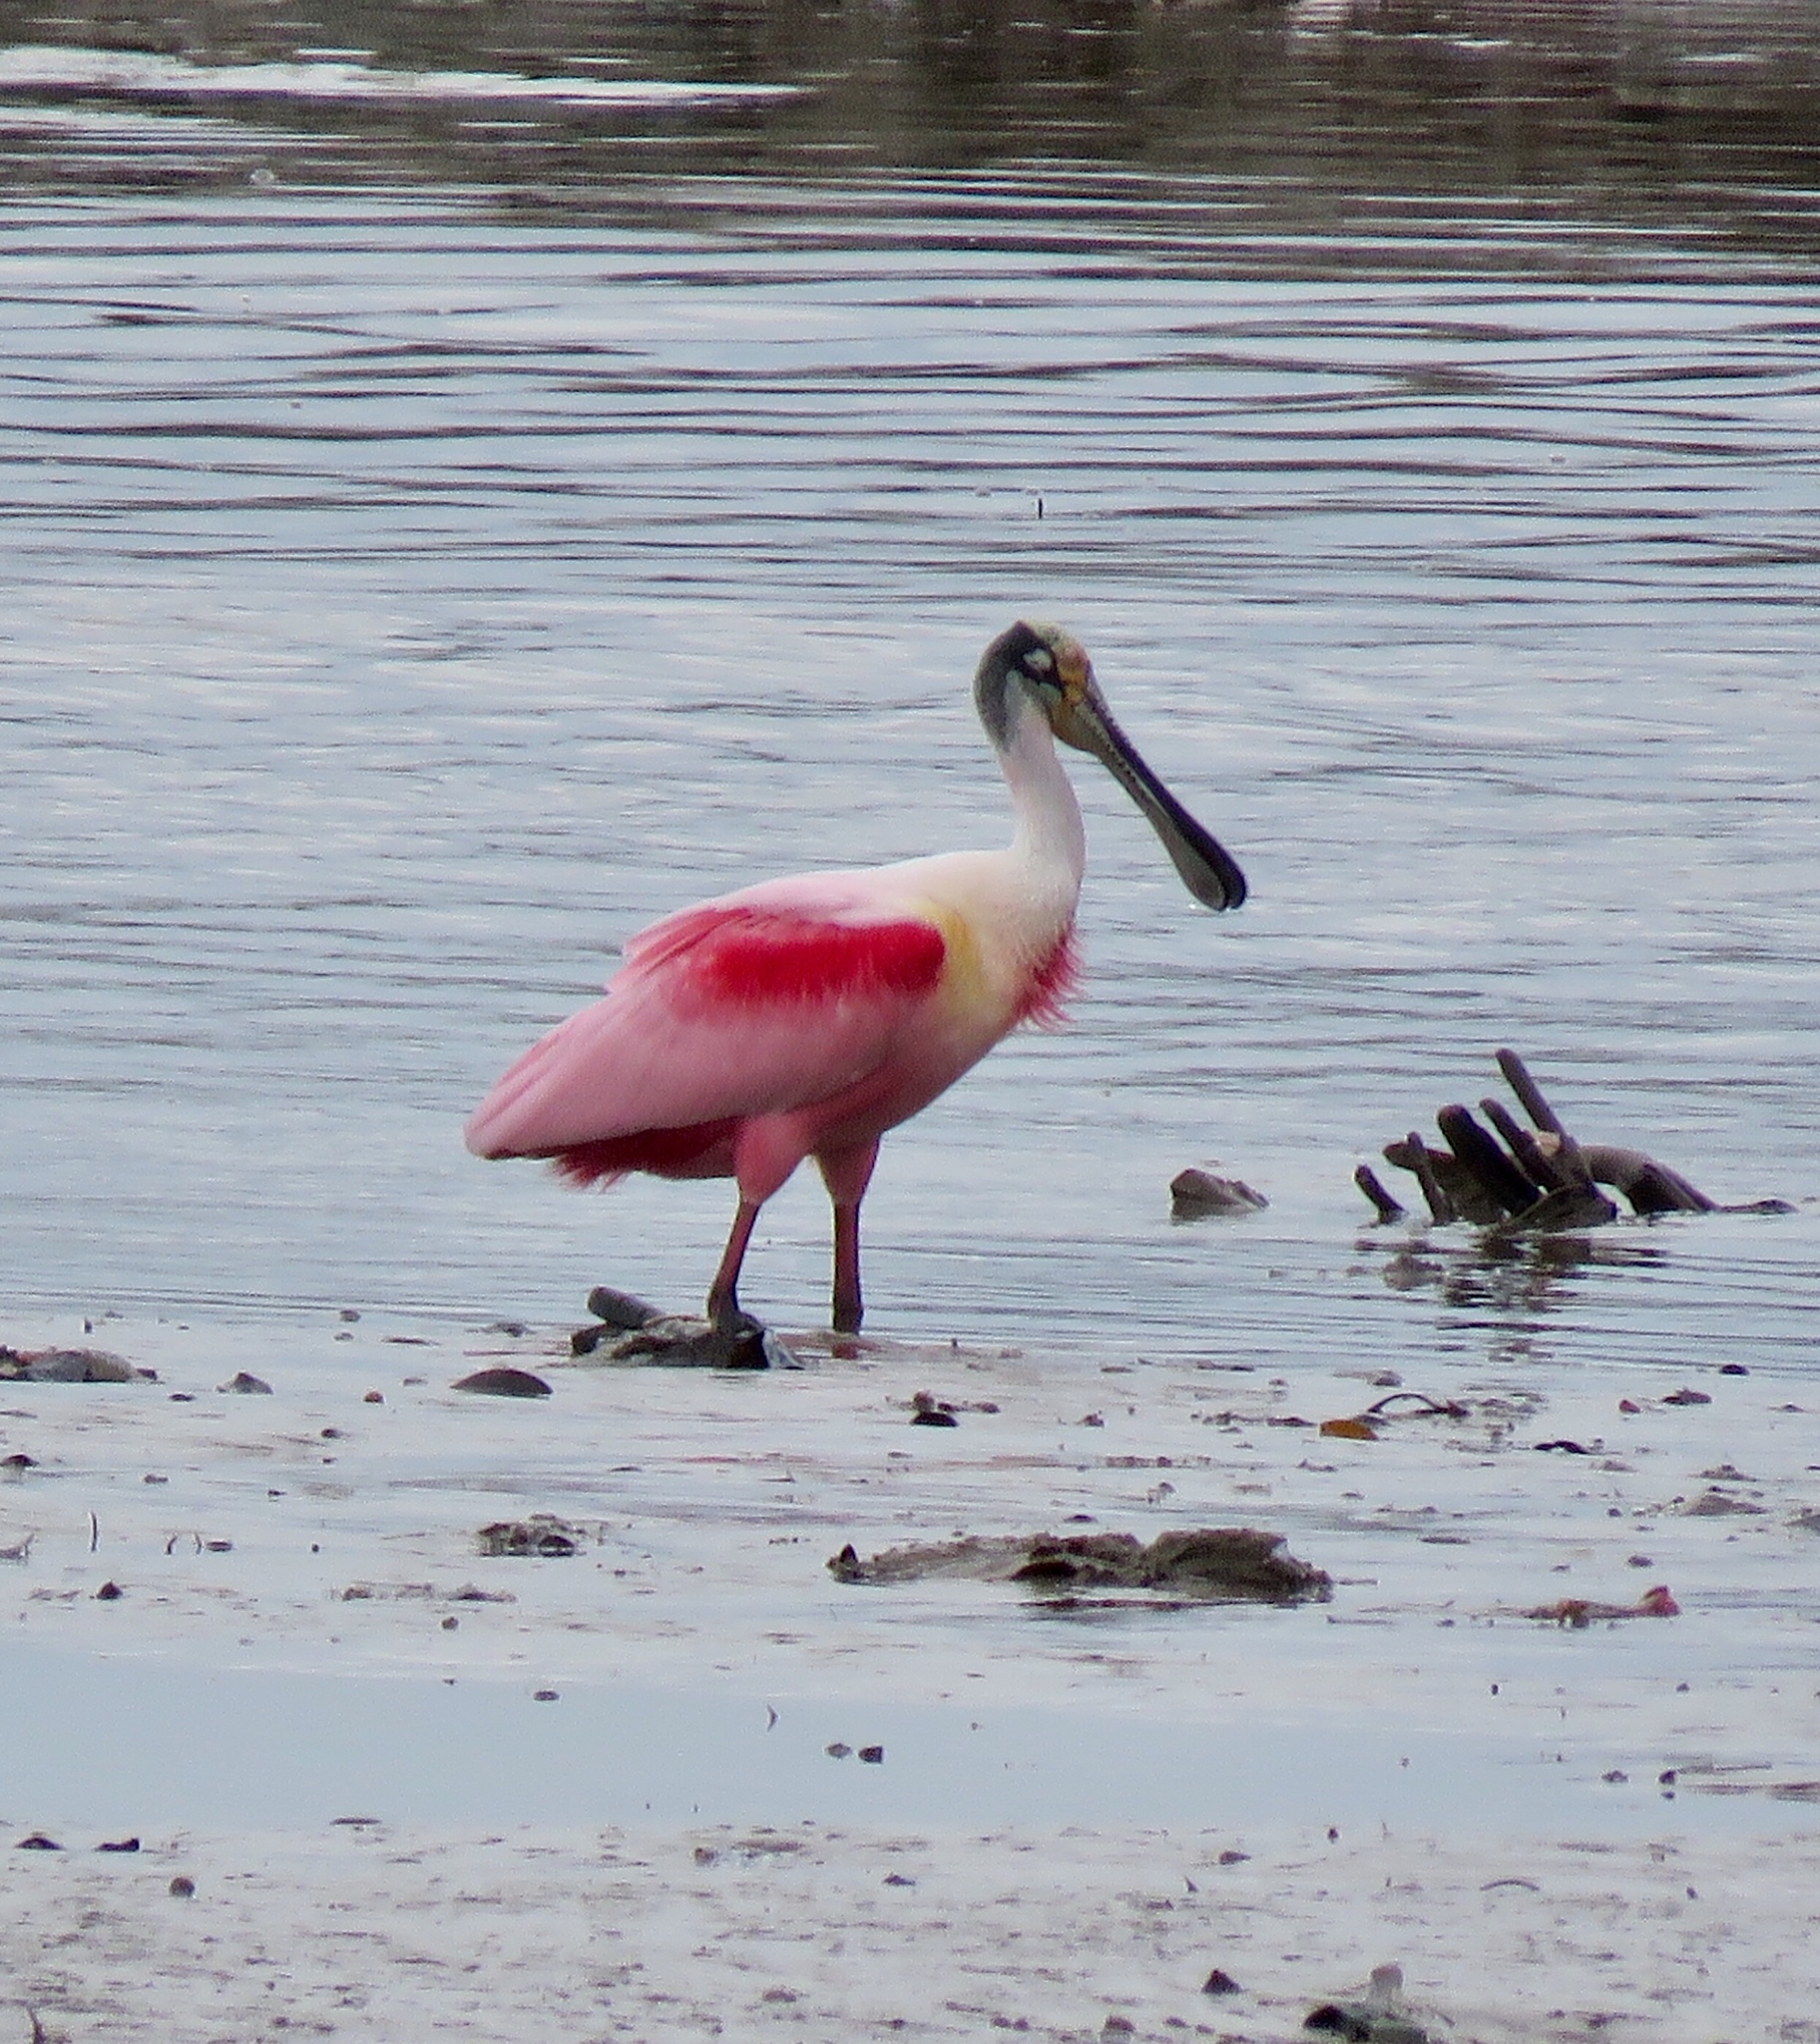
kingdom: Animalia
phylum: Chordata
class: Aves
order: Pelecaniformes
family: Threskiornithidae
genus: Platalea
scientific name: Platalea ajaja
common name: Roseate spoonbill
